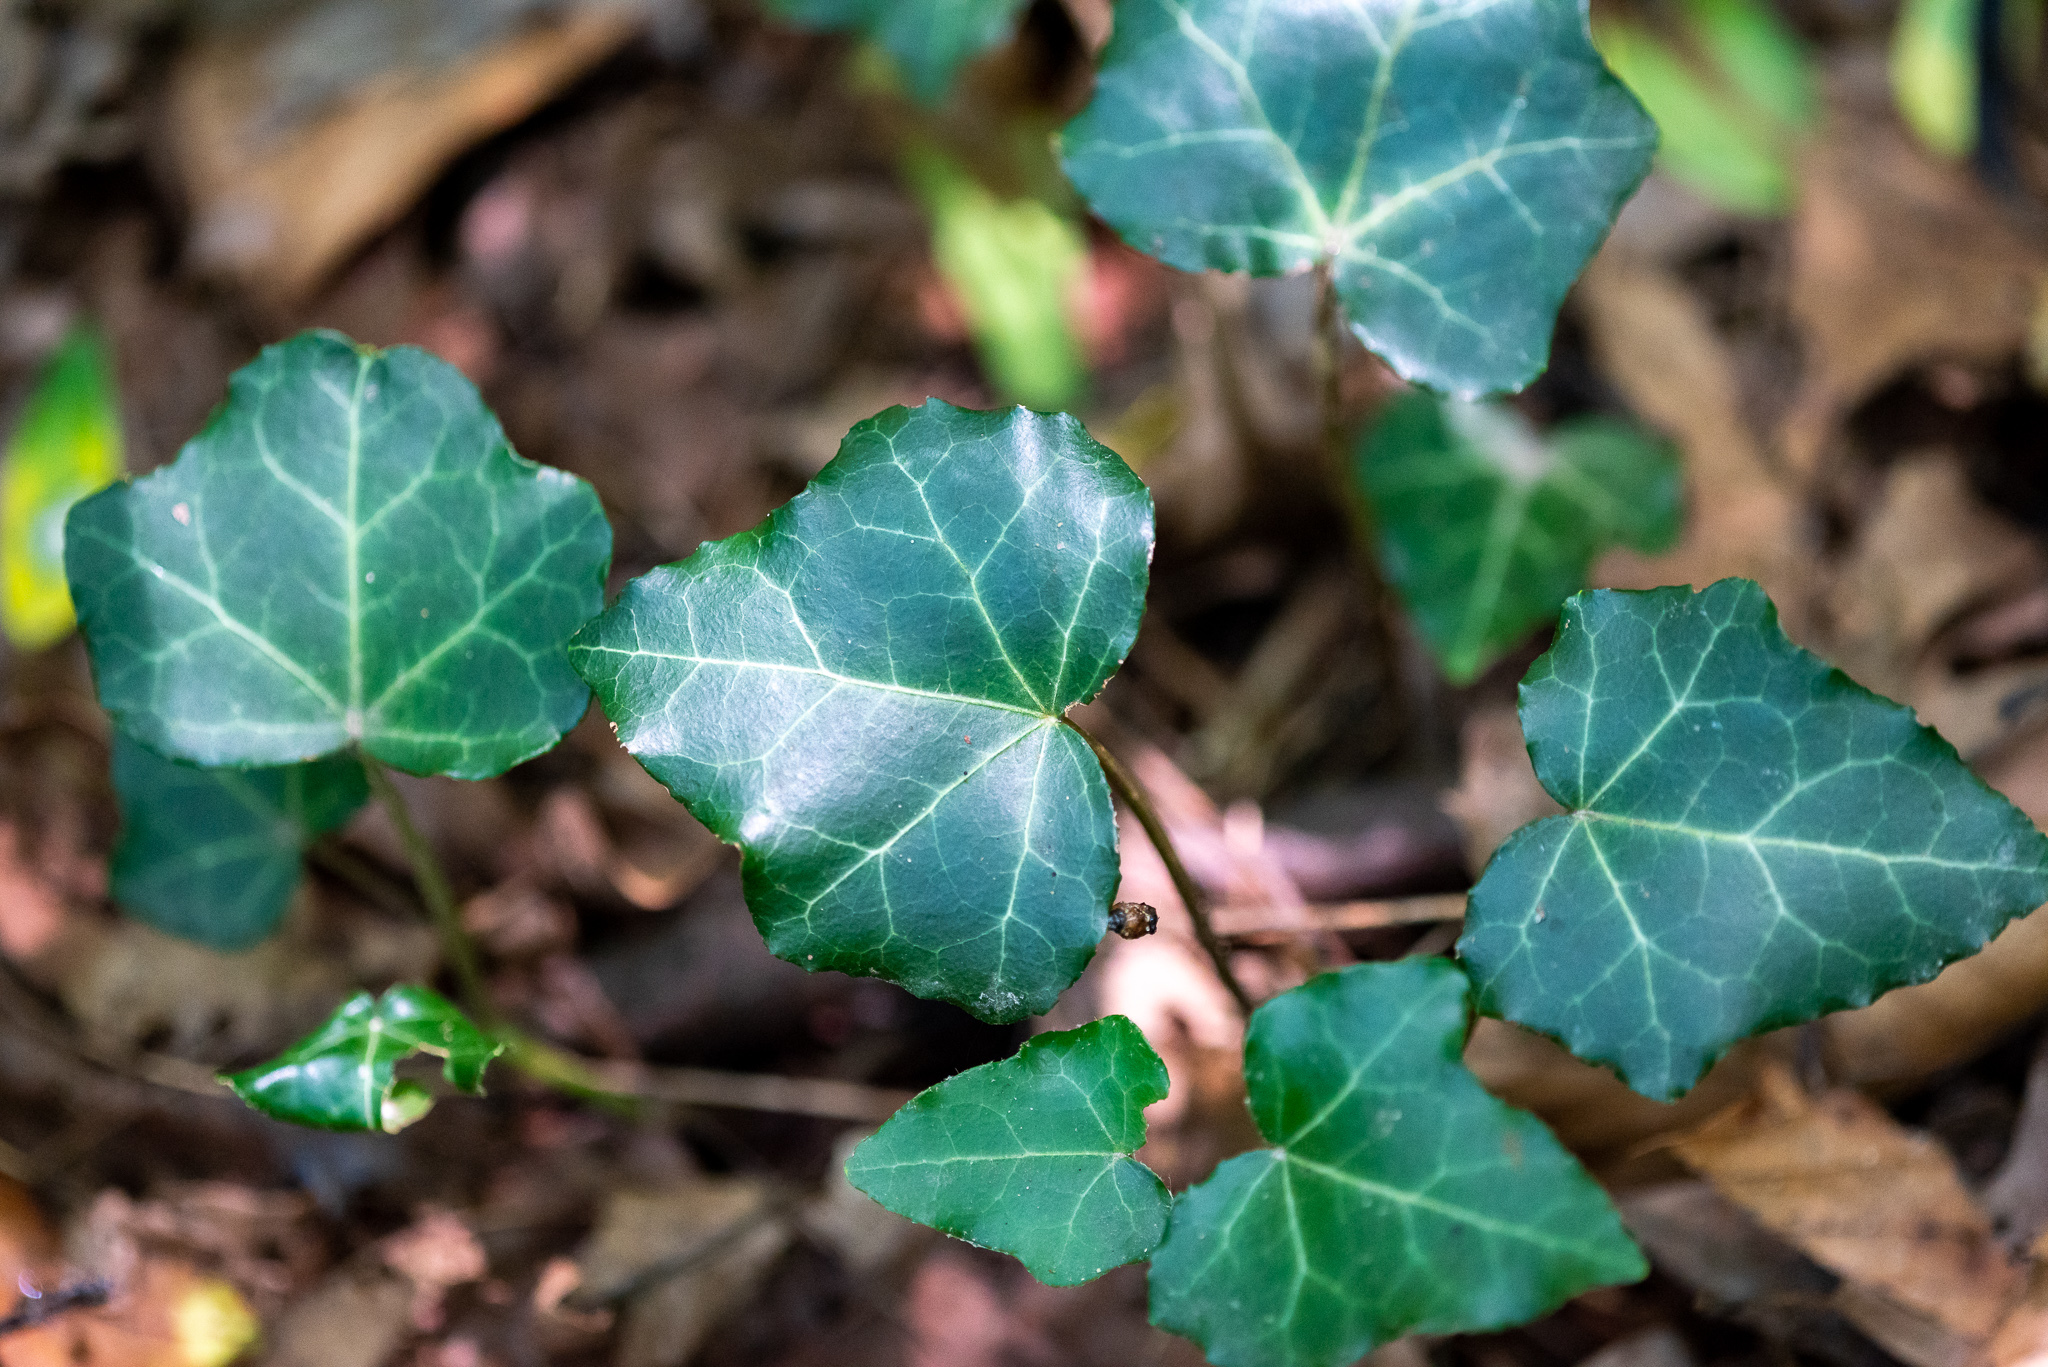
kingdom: Plantae
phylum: Tracheophyta
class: Magnoliopsida
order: Apiales
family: Araliaceae
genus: Hedera
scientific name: Hedera helix
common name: Ivy
